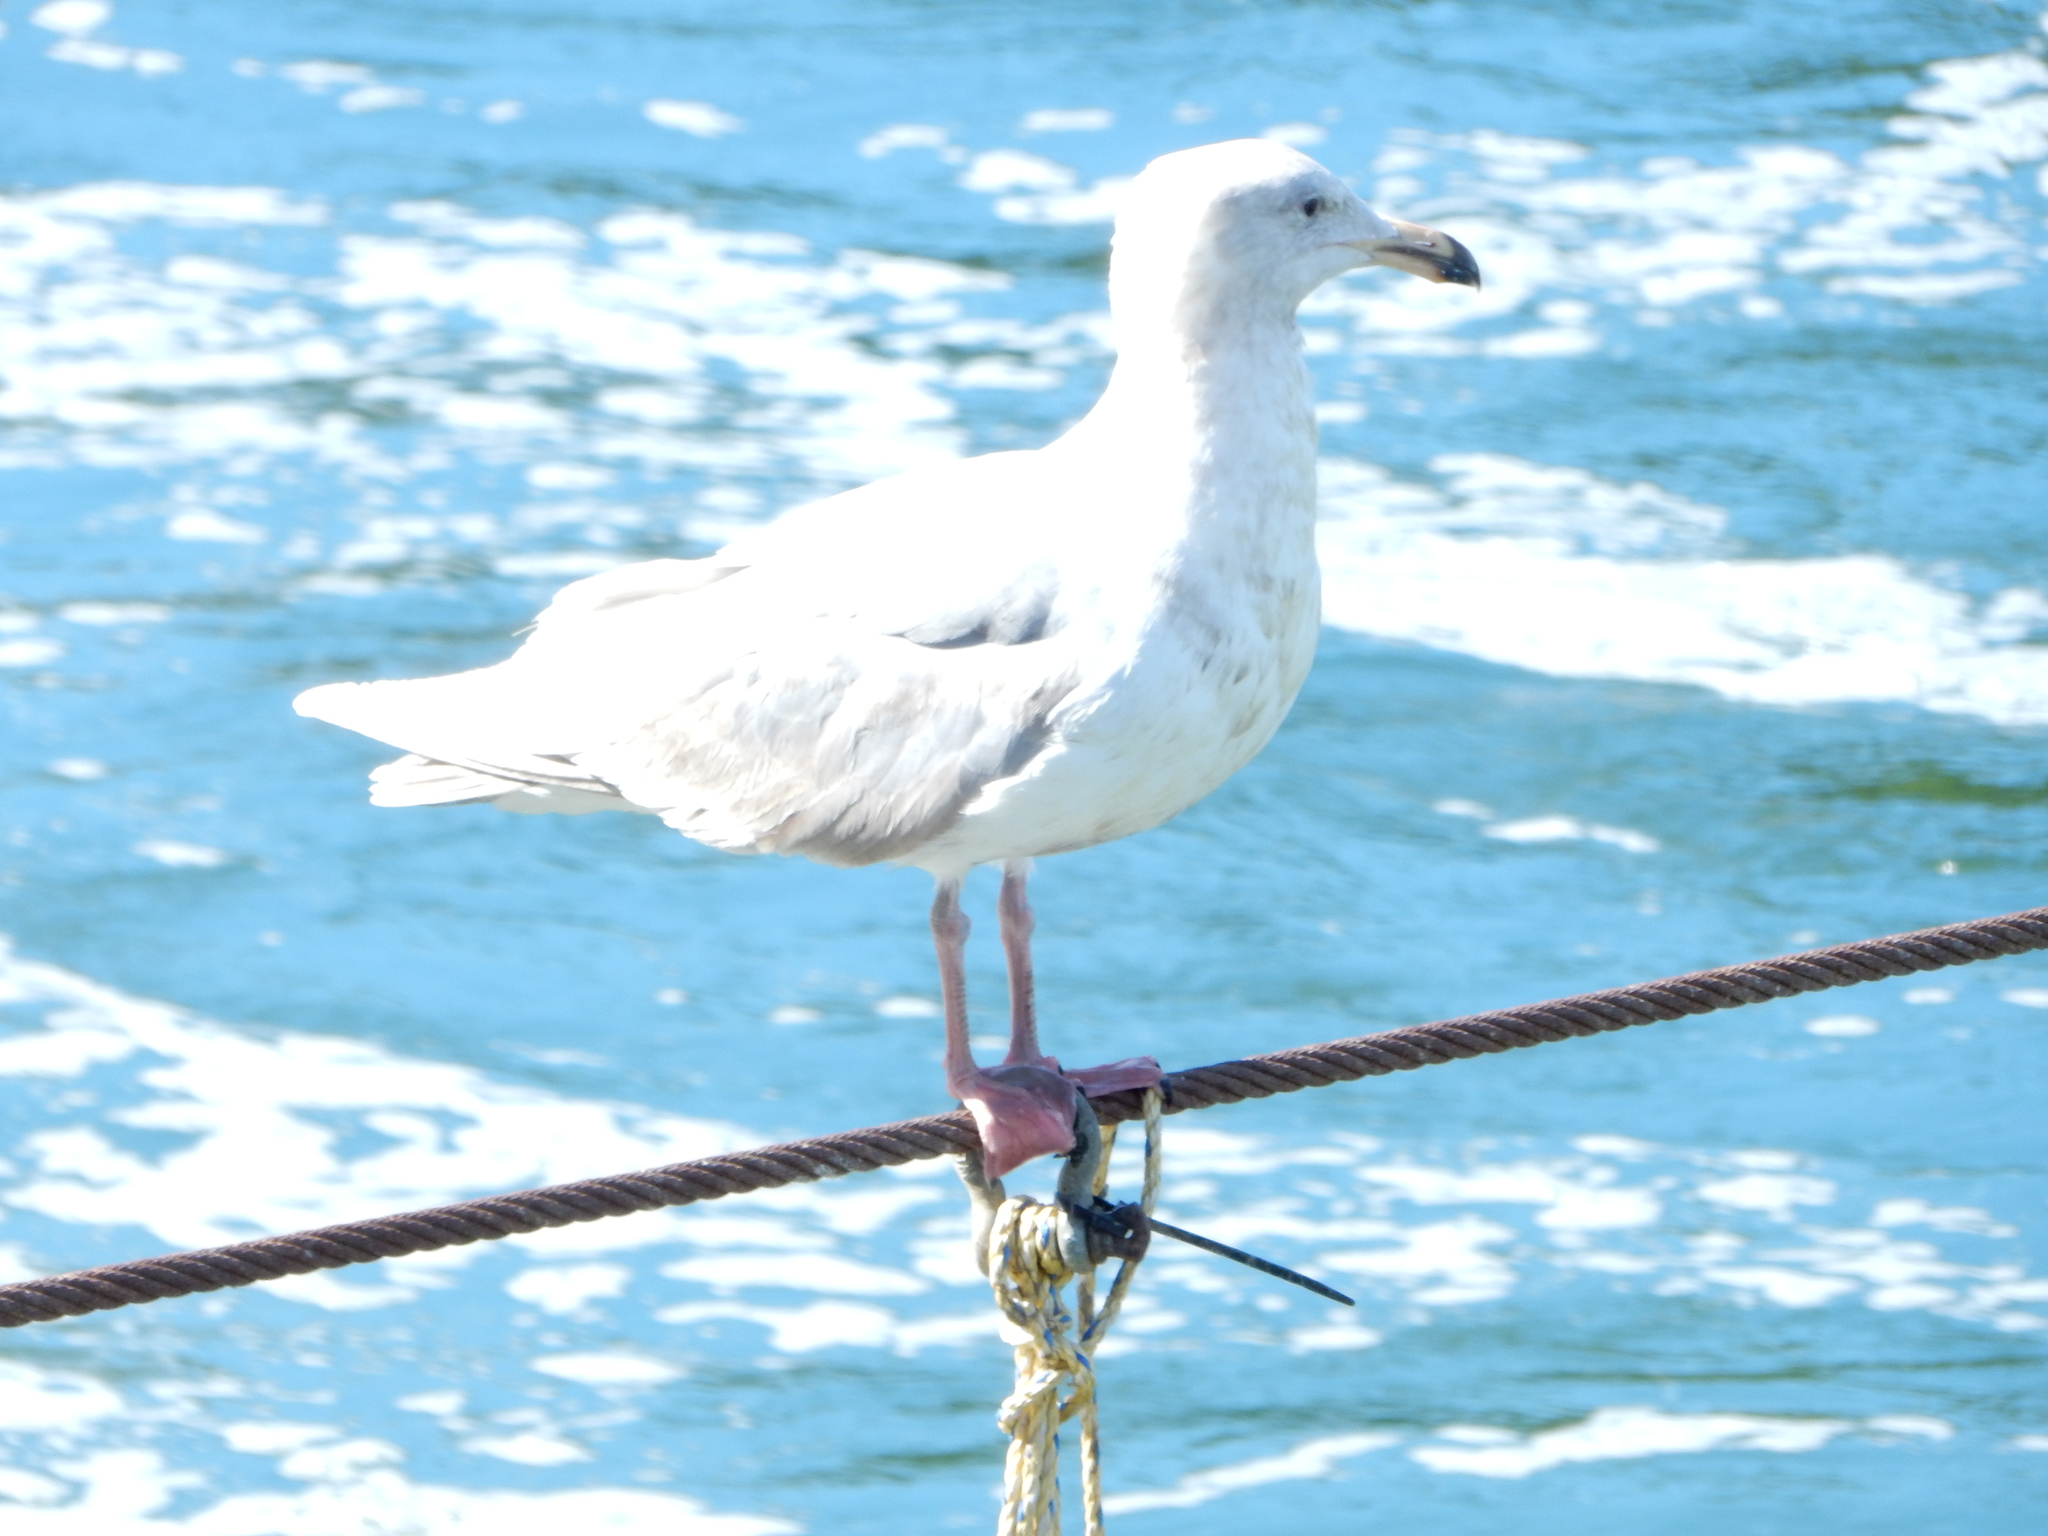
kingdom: Animalia
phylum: Chordata
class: Aves
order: Charadriiformes
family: Laridae
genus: Larus
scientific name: Larus glaucescens
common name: Glaucous-winged gull
